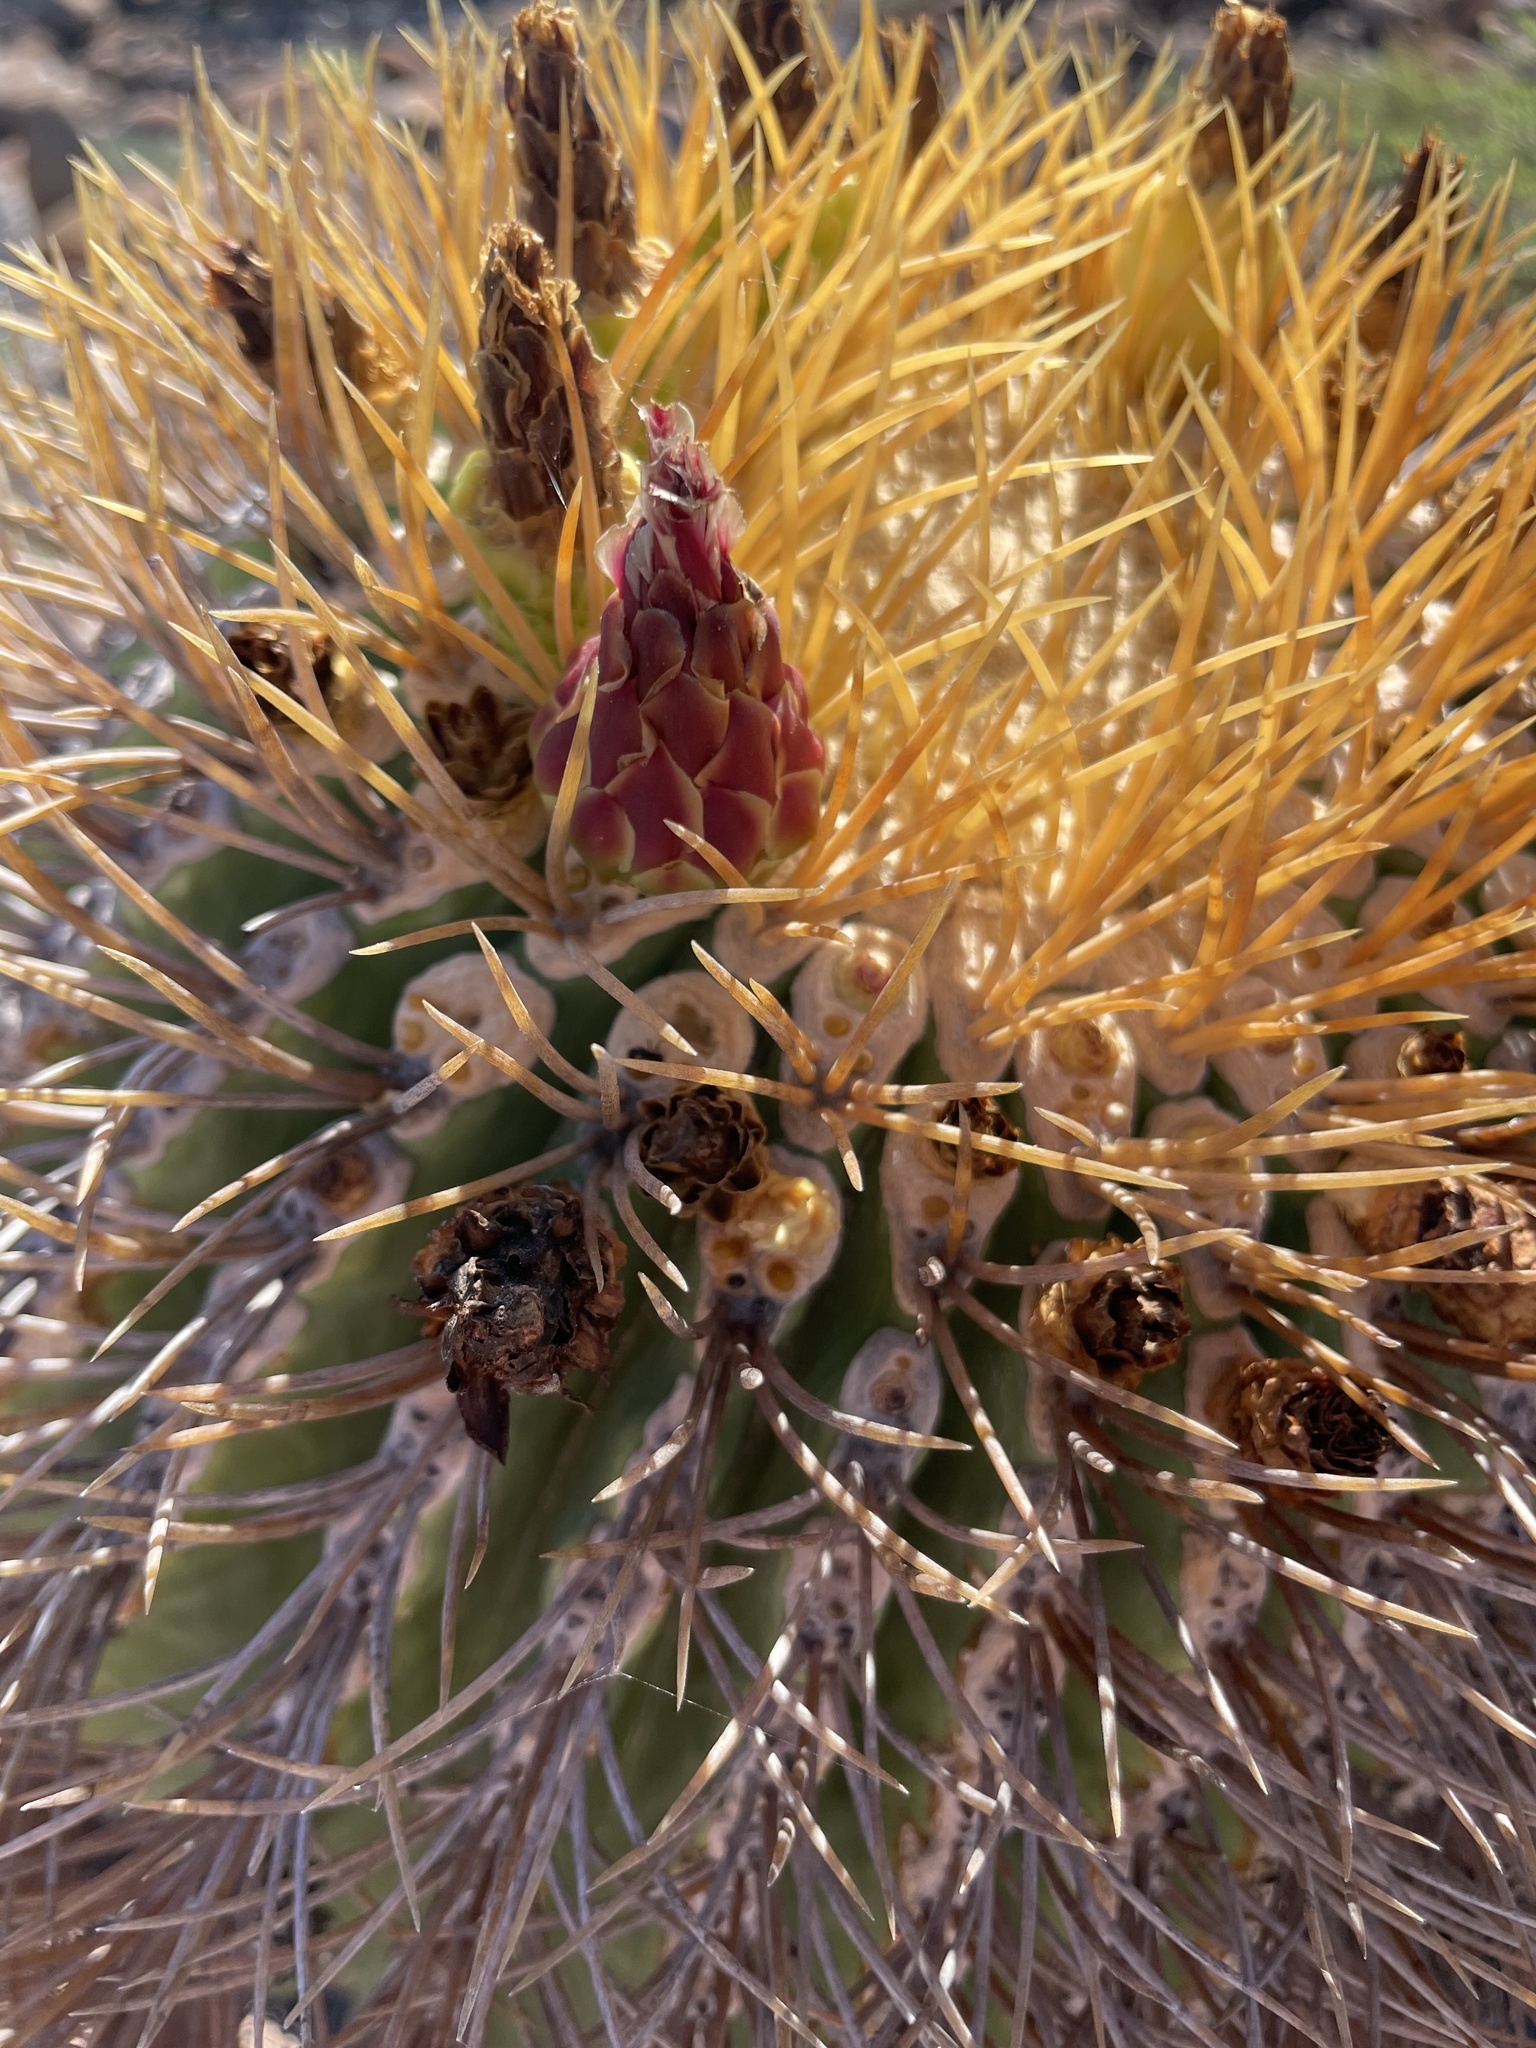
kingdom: Plantae
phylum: Tracheophyta
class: Magnoliopsida
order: Caryophyllales
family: Cactaceae
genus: Ferocactus
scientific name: Ferocactus diguetii
